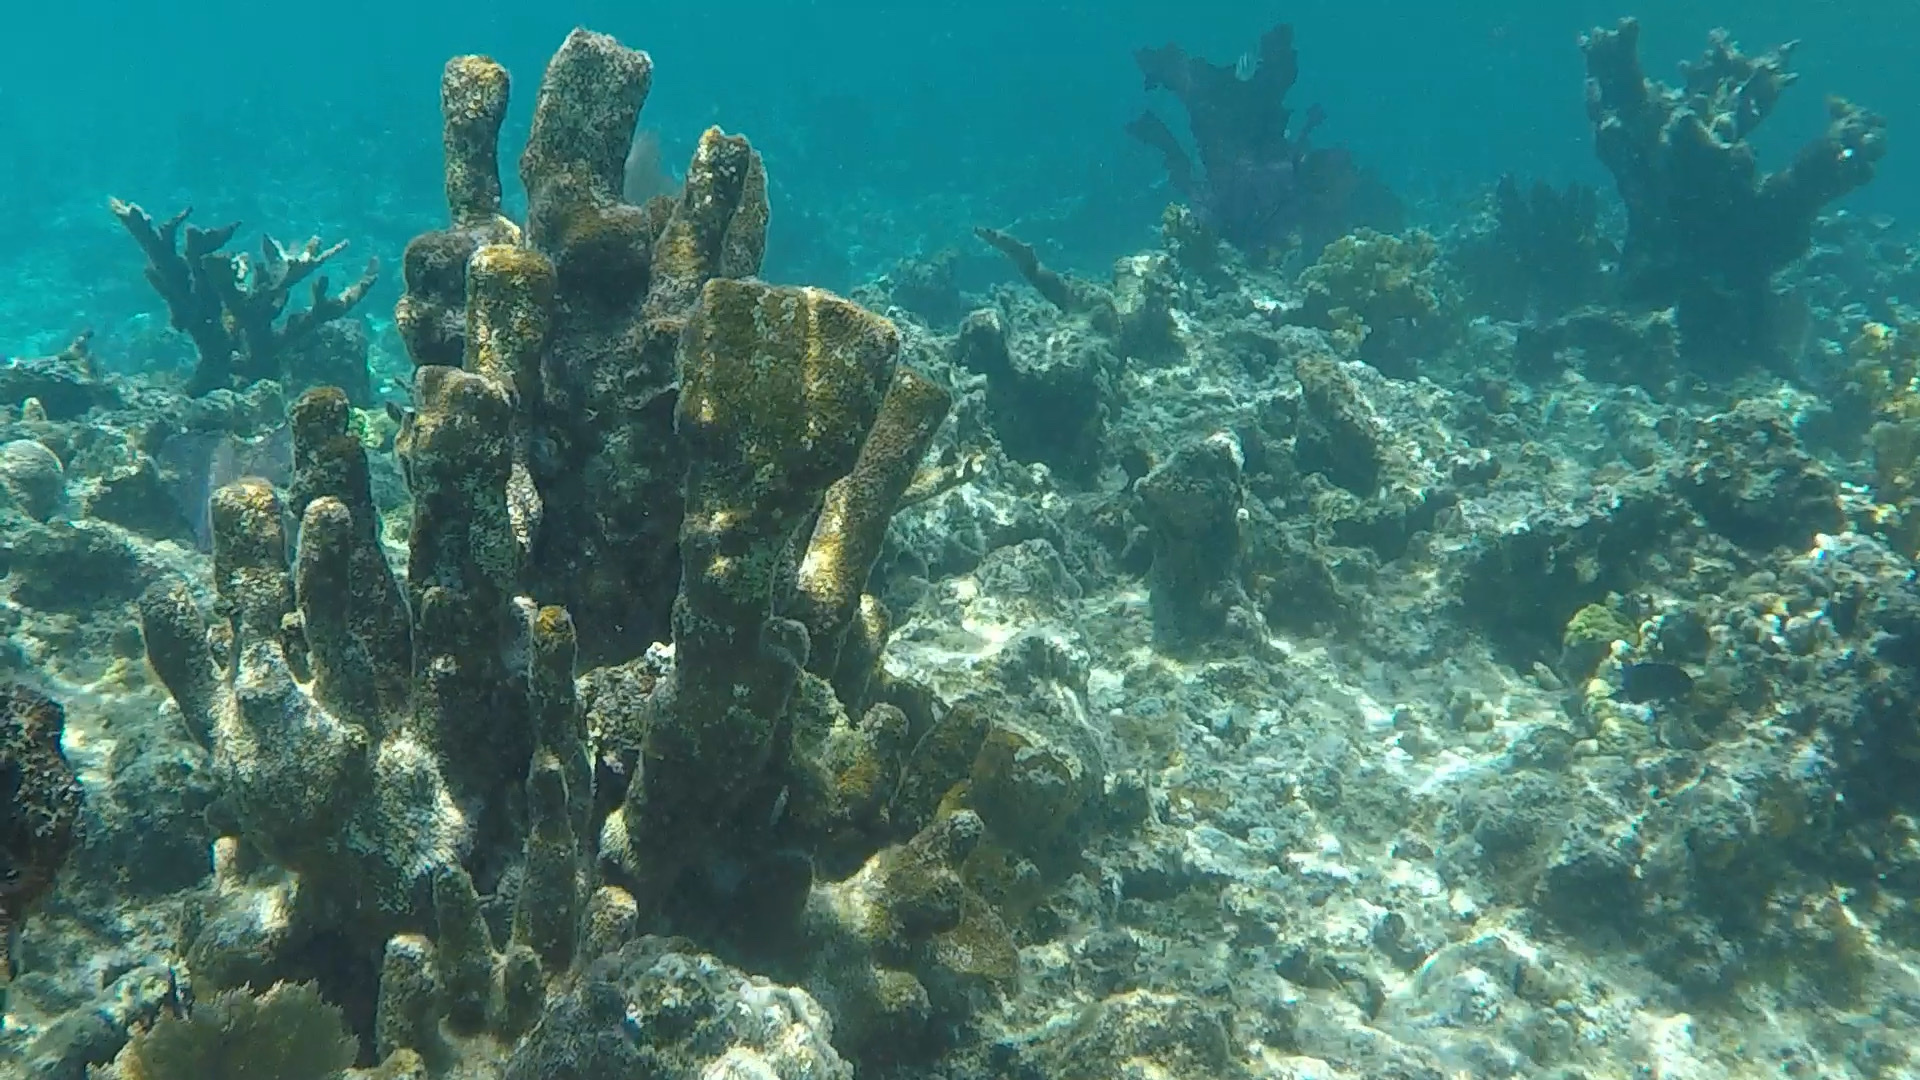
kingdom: Animalia
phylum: Cnidaria
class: Anthozoa
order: Scleractinia
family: Meandrinidae
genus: Dendrogyra
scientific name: Dendrogyra cylindrus
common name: Pillar coral
